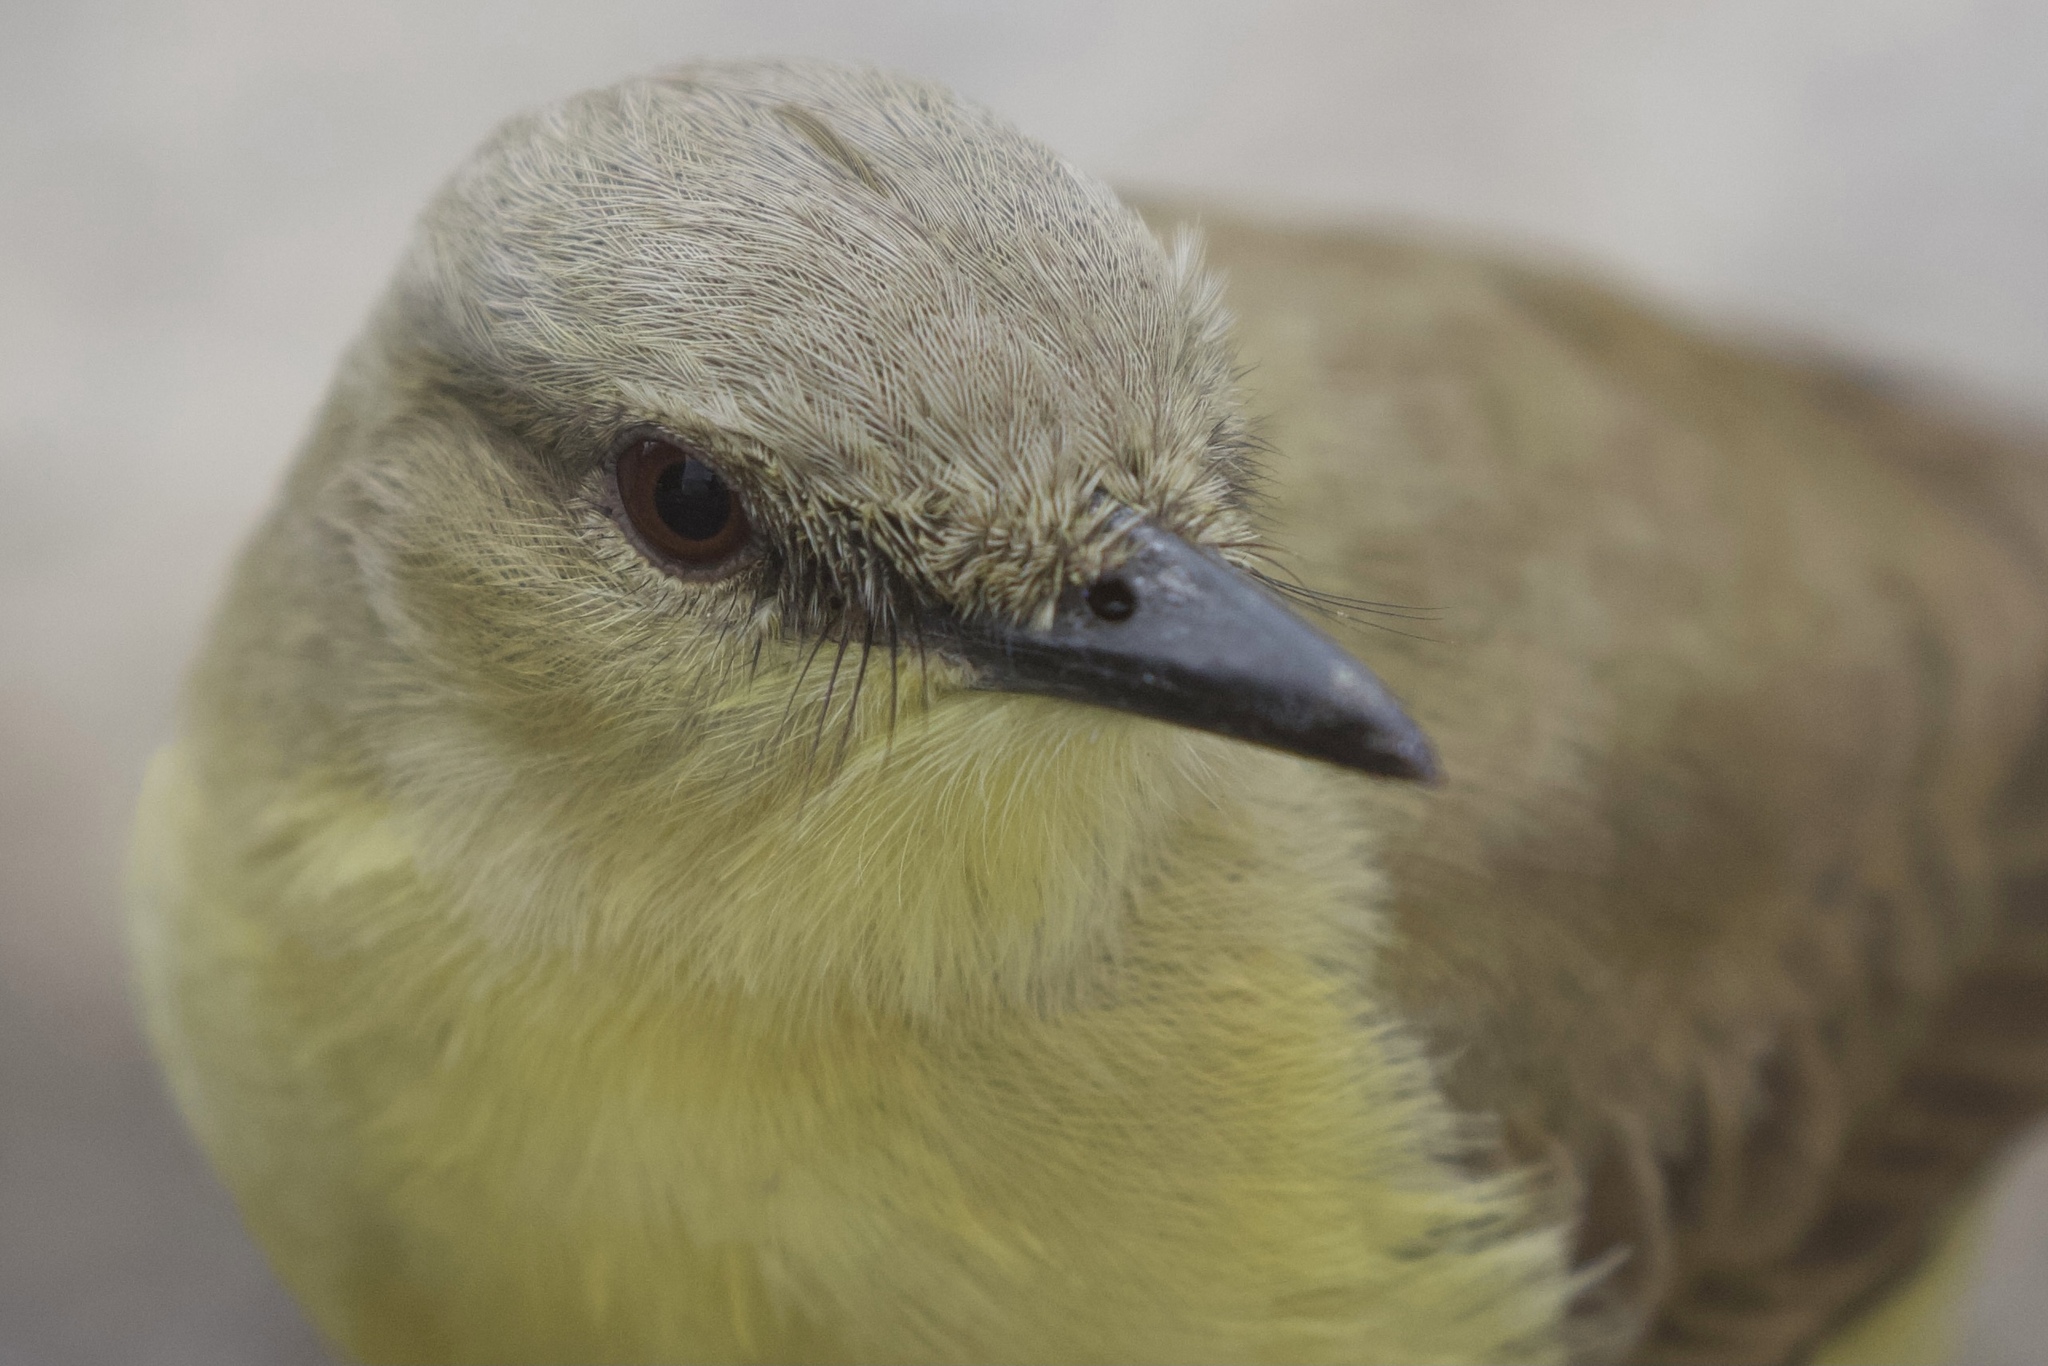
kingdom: Animalia
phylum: Chordata
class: Aves
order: Passeriformes
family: Tyrannidae
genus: Machetornis
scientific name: Machetornis rixosa
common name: Cattle tyrant
